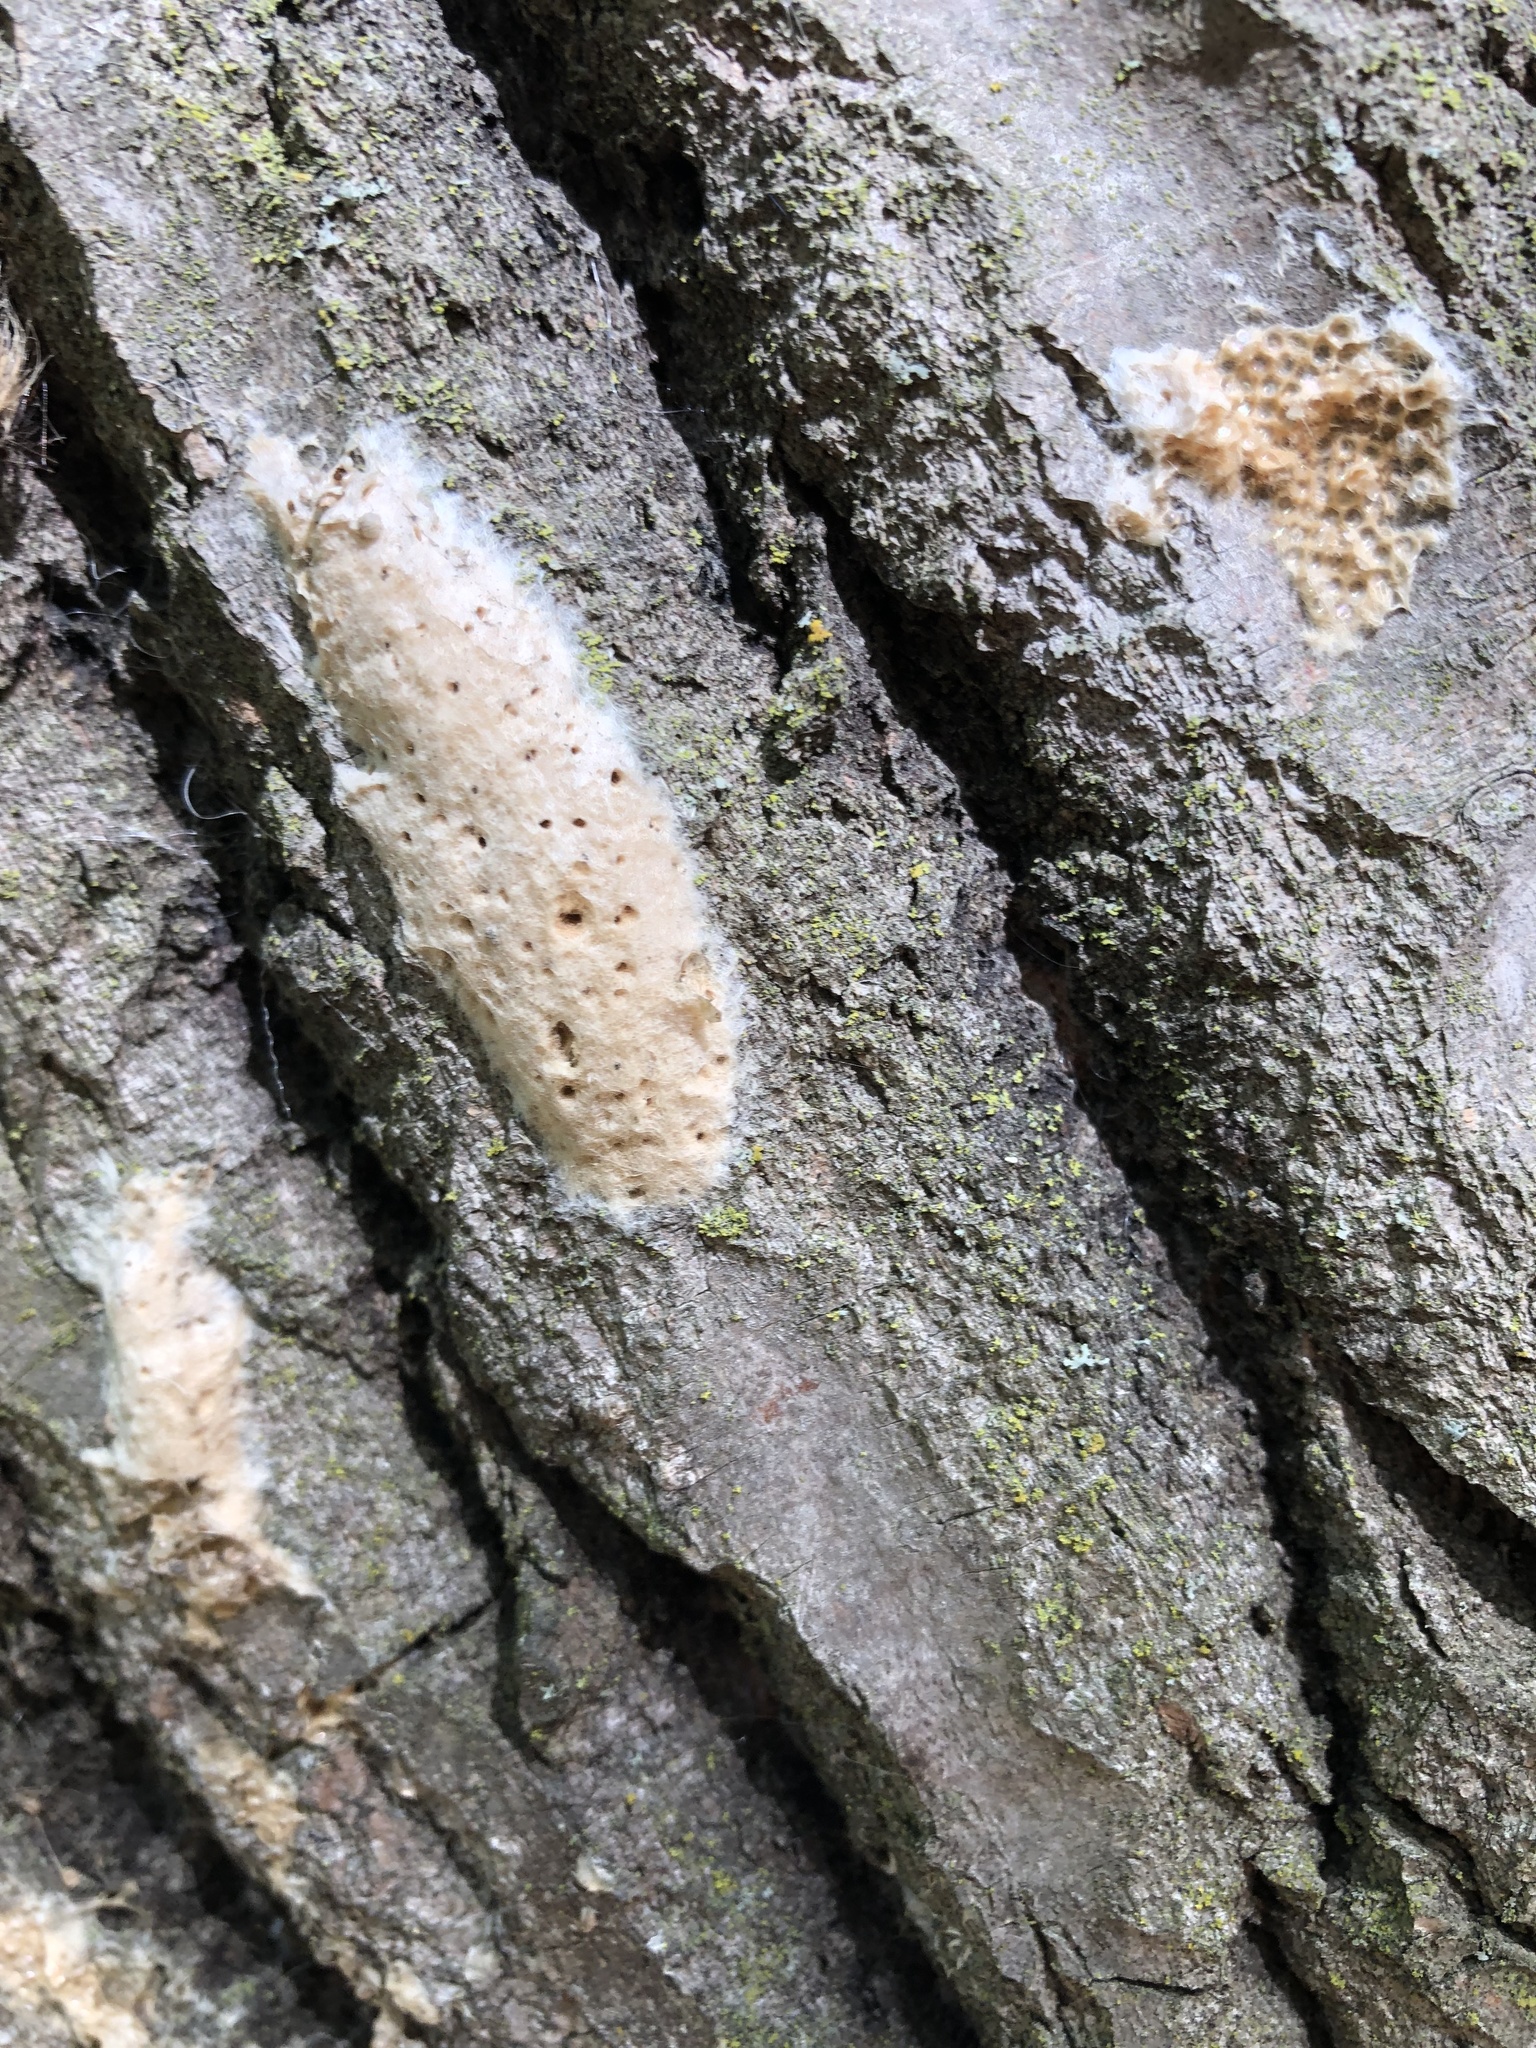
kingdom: Animalia
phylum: Arthropoda
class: Insecta
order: Lepidoptera
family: Erebidae
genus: Lymantria
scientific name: Lymantria dispar
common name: Gypsy moth
